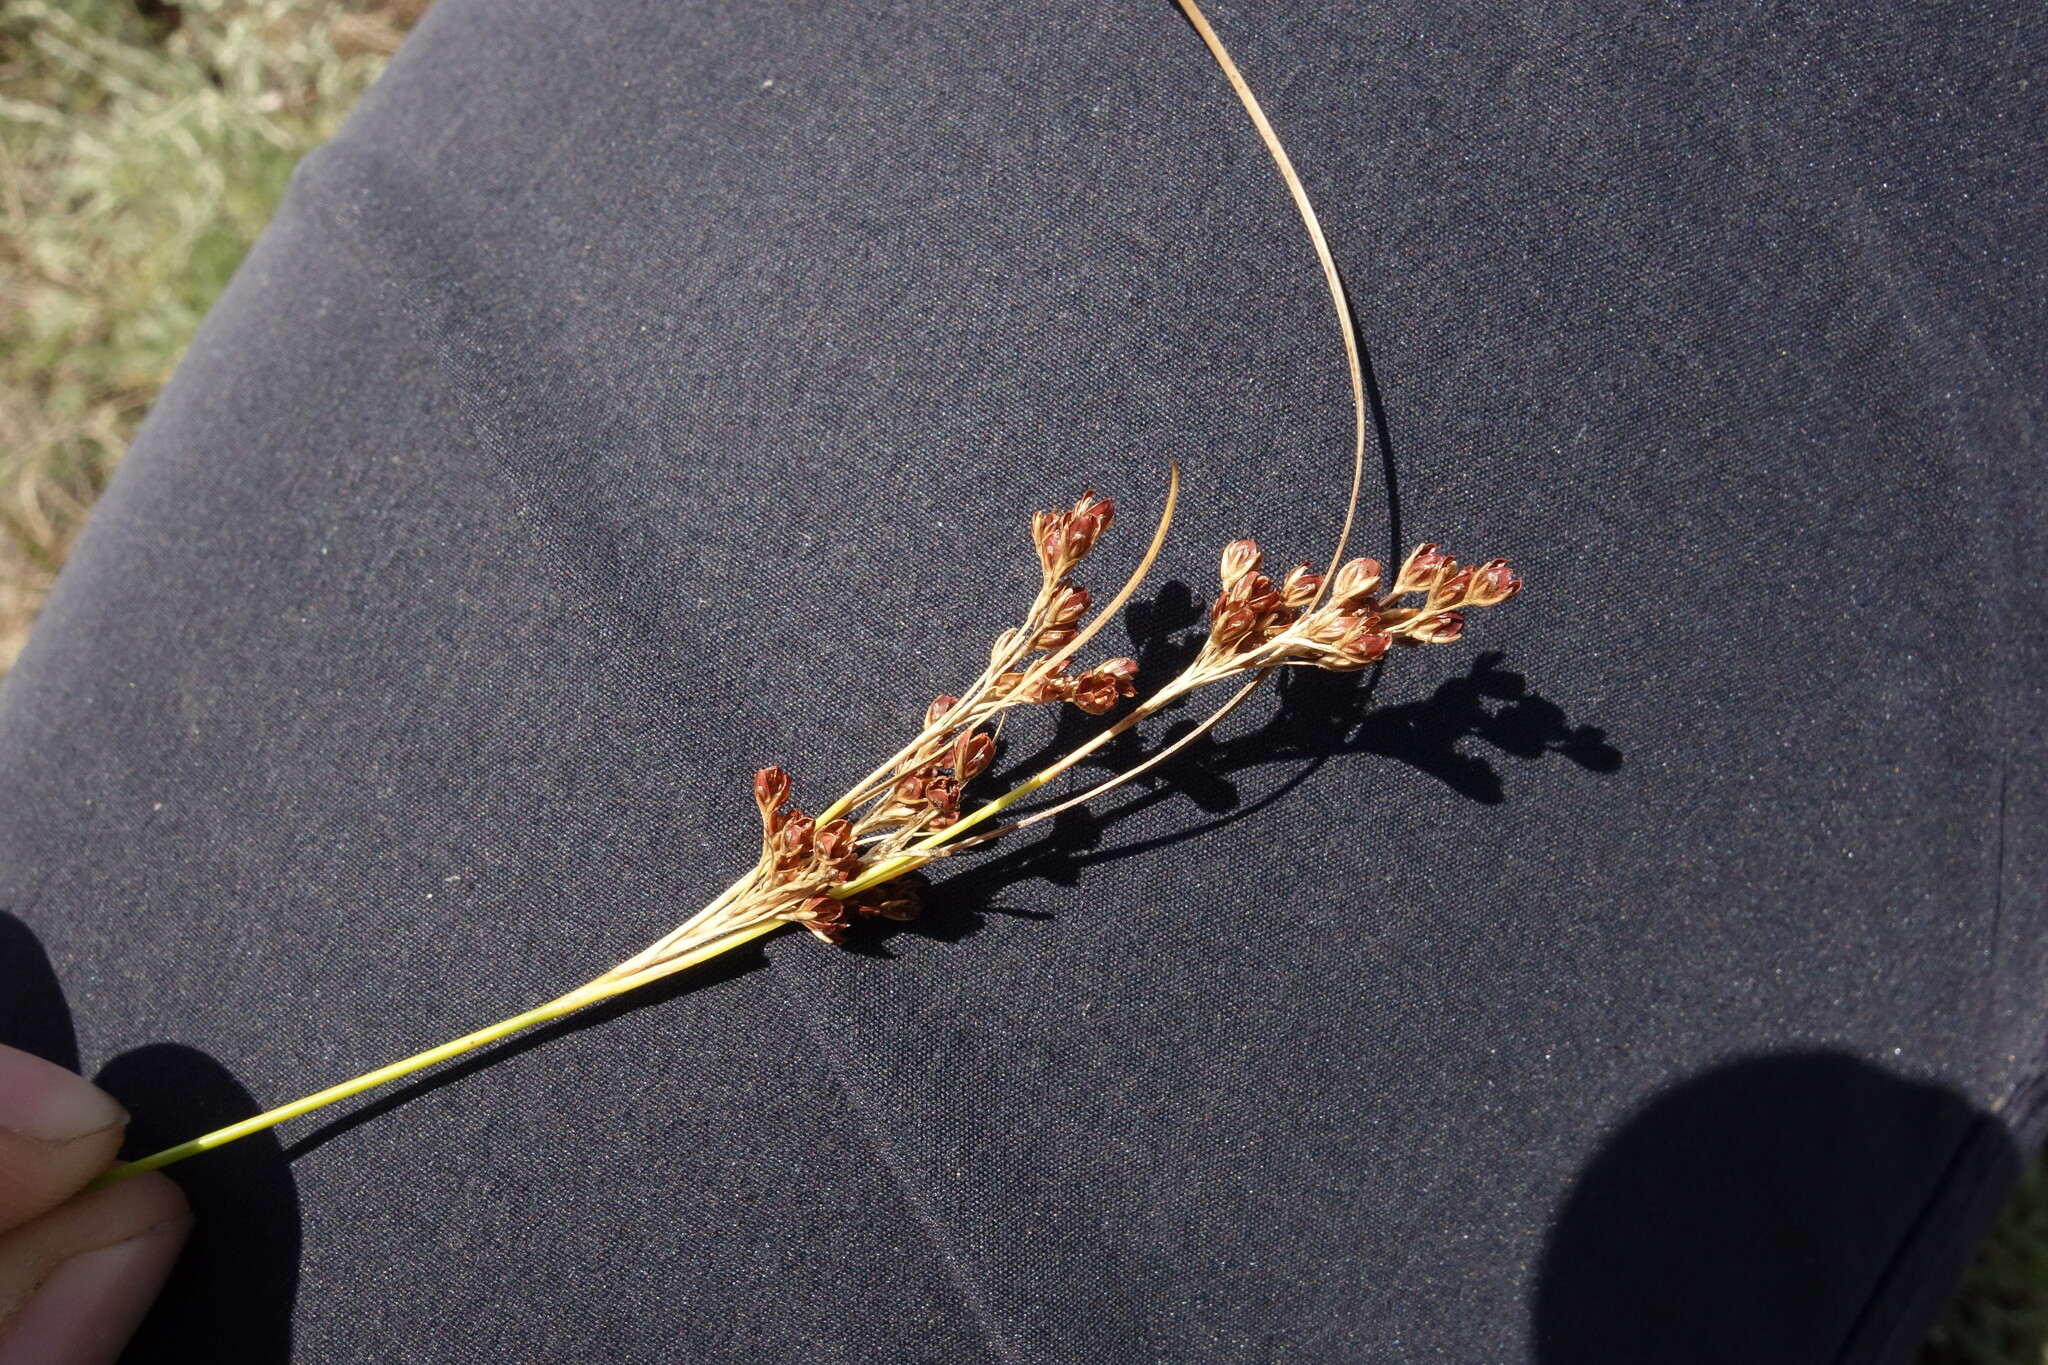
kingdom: Plantae
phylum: Tracheophyta
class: Liliopsida
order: Poales
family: Juncaceae
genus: Juncus
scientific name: Juncus compressus
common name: Round-fruited rush
